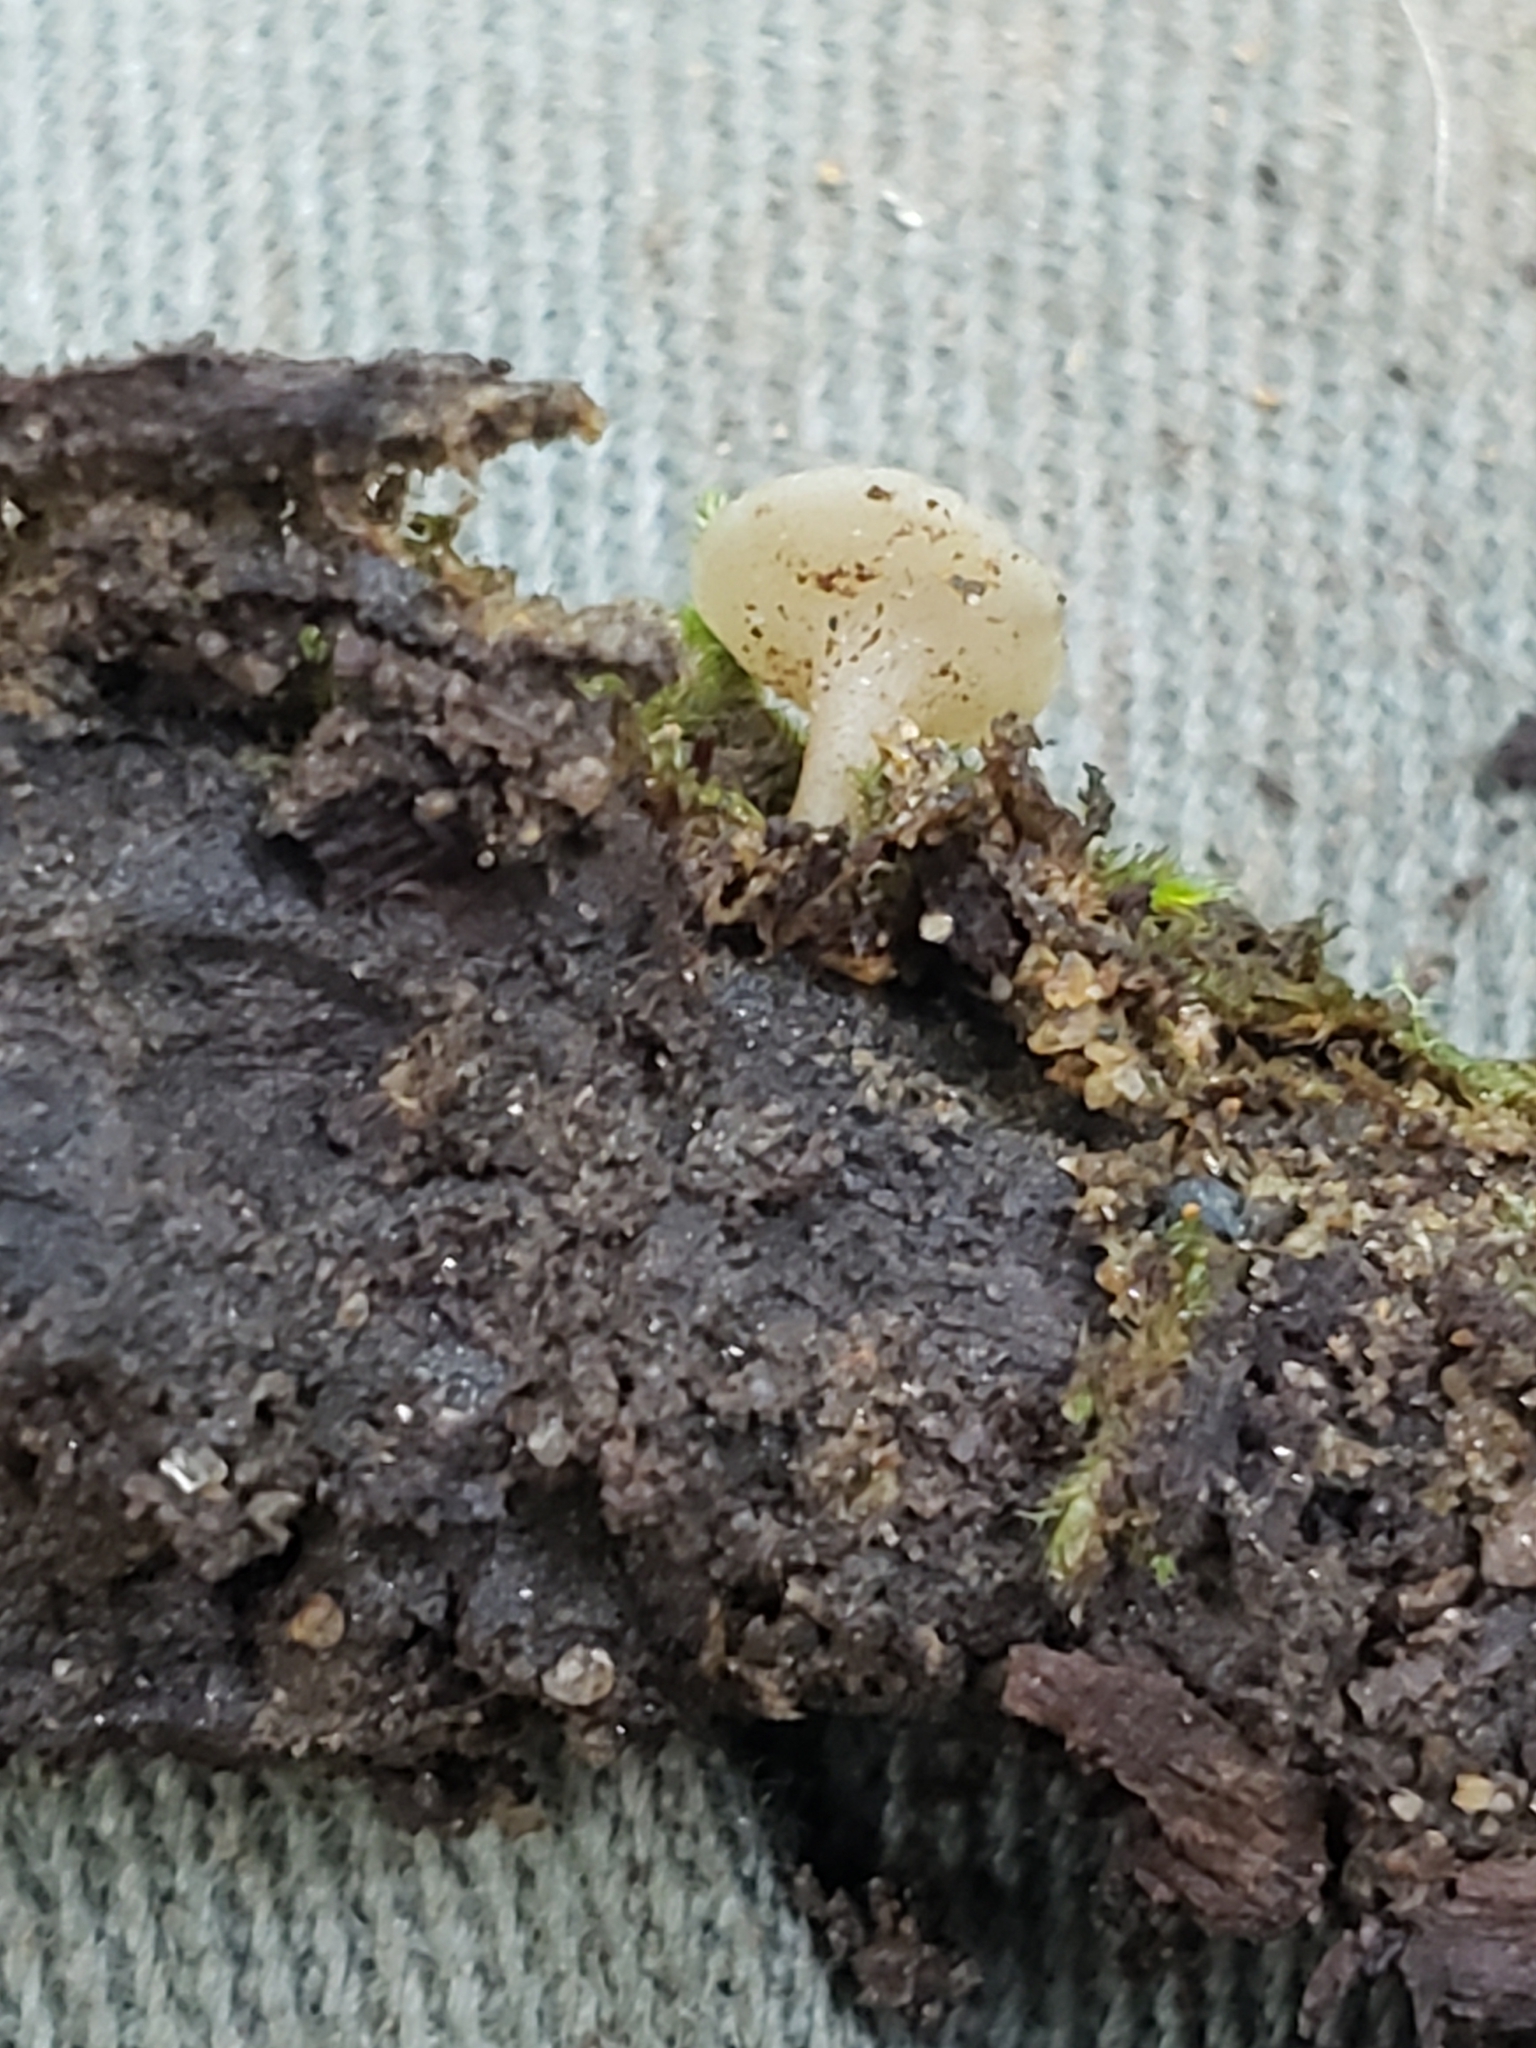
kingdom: Fungi
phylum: Ascomycota
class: Leotiomycetes
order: Helotiales
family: Helotiaceae
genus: Tatraea
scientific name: Tatraea macrospora
